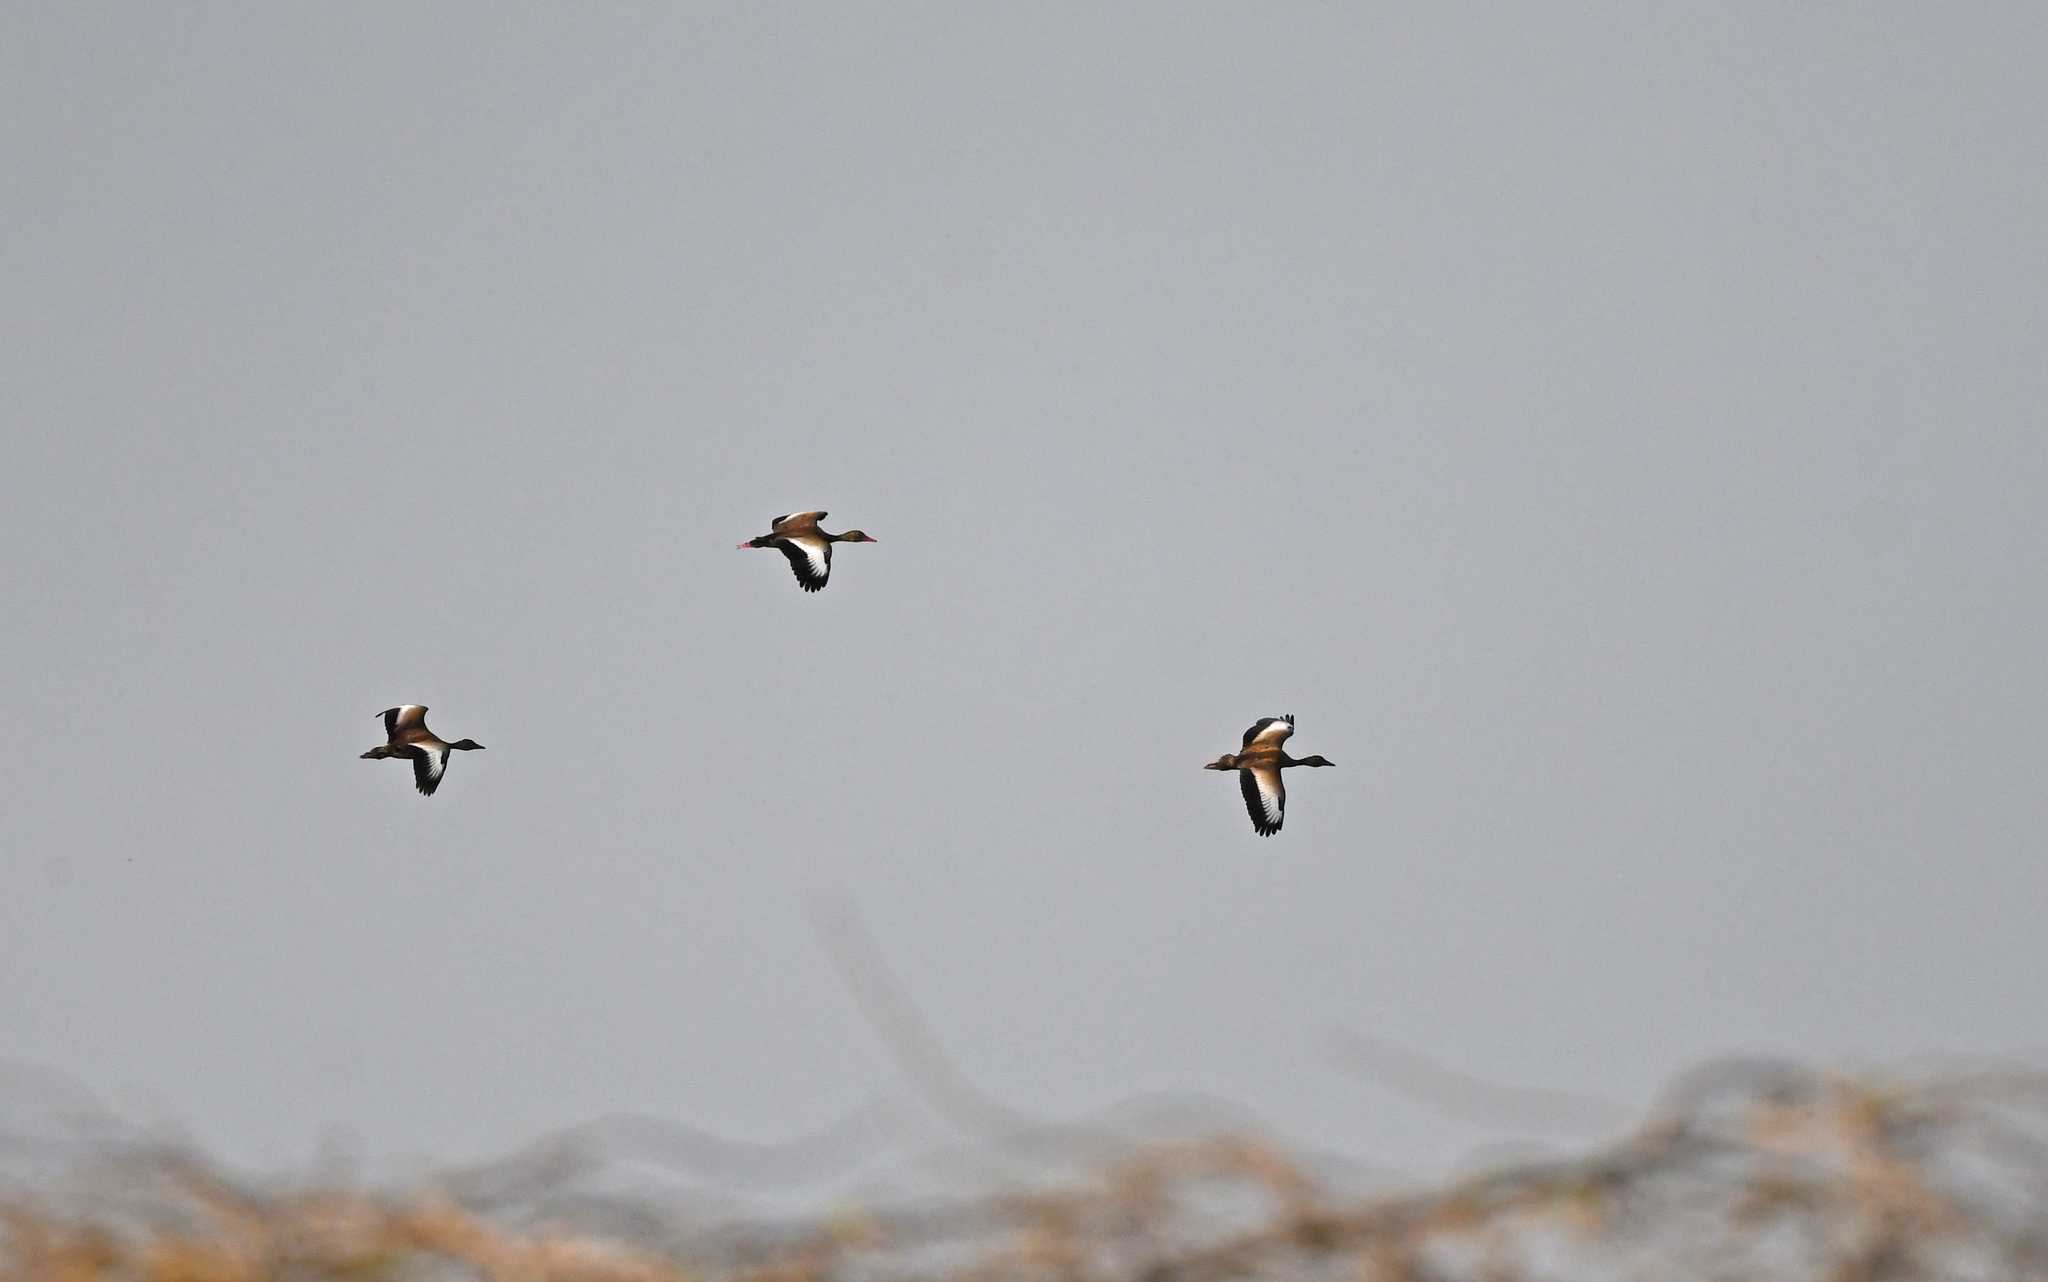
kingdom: Animalia
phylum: Chordata
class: Aves
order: Anseriformes
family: Anatidae
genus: Dendrocygna
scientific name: Dendrocygna autumnalis
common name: Black-bellied whistling duck
